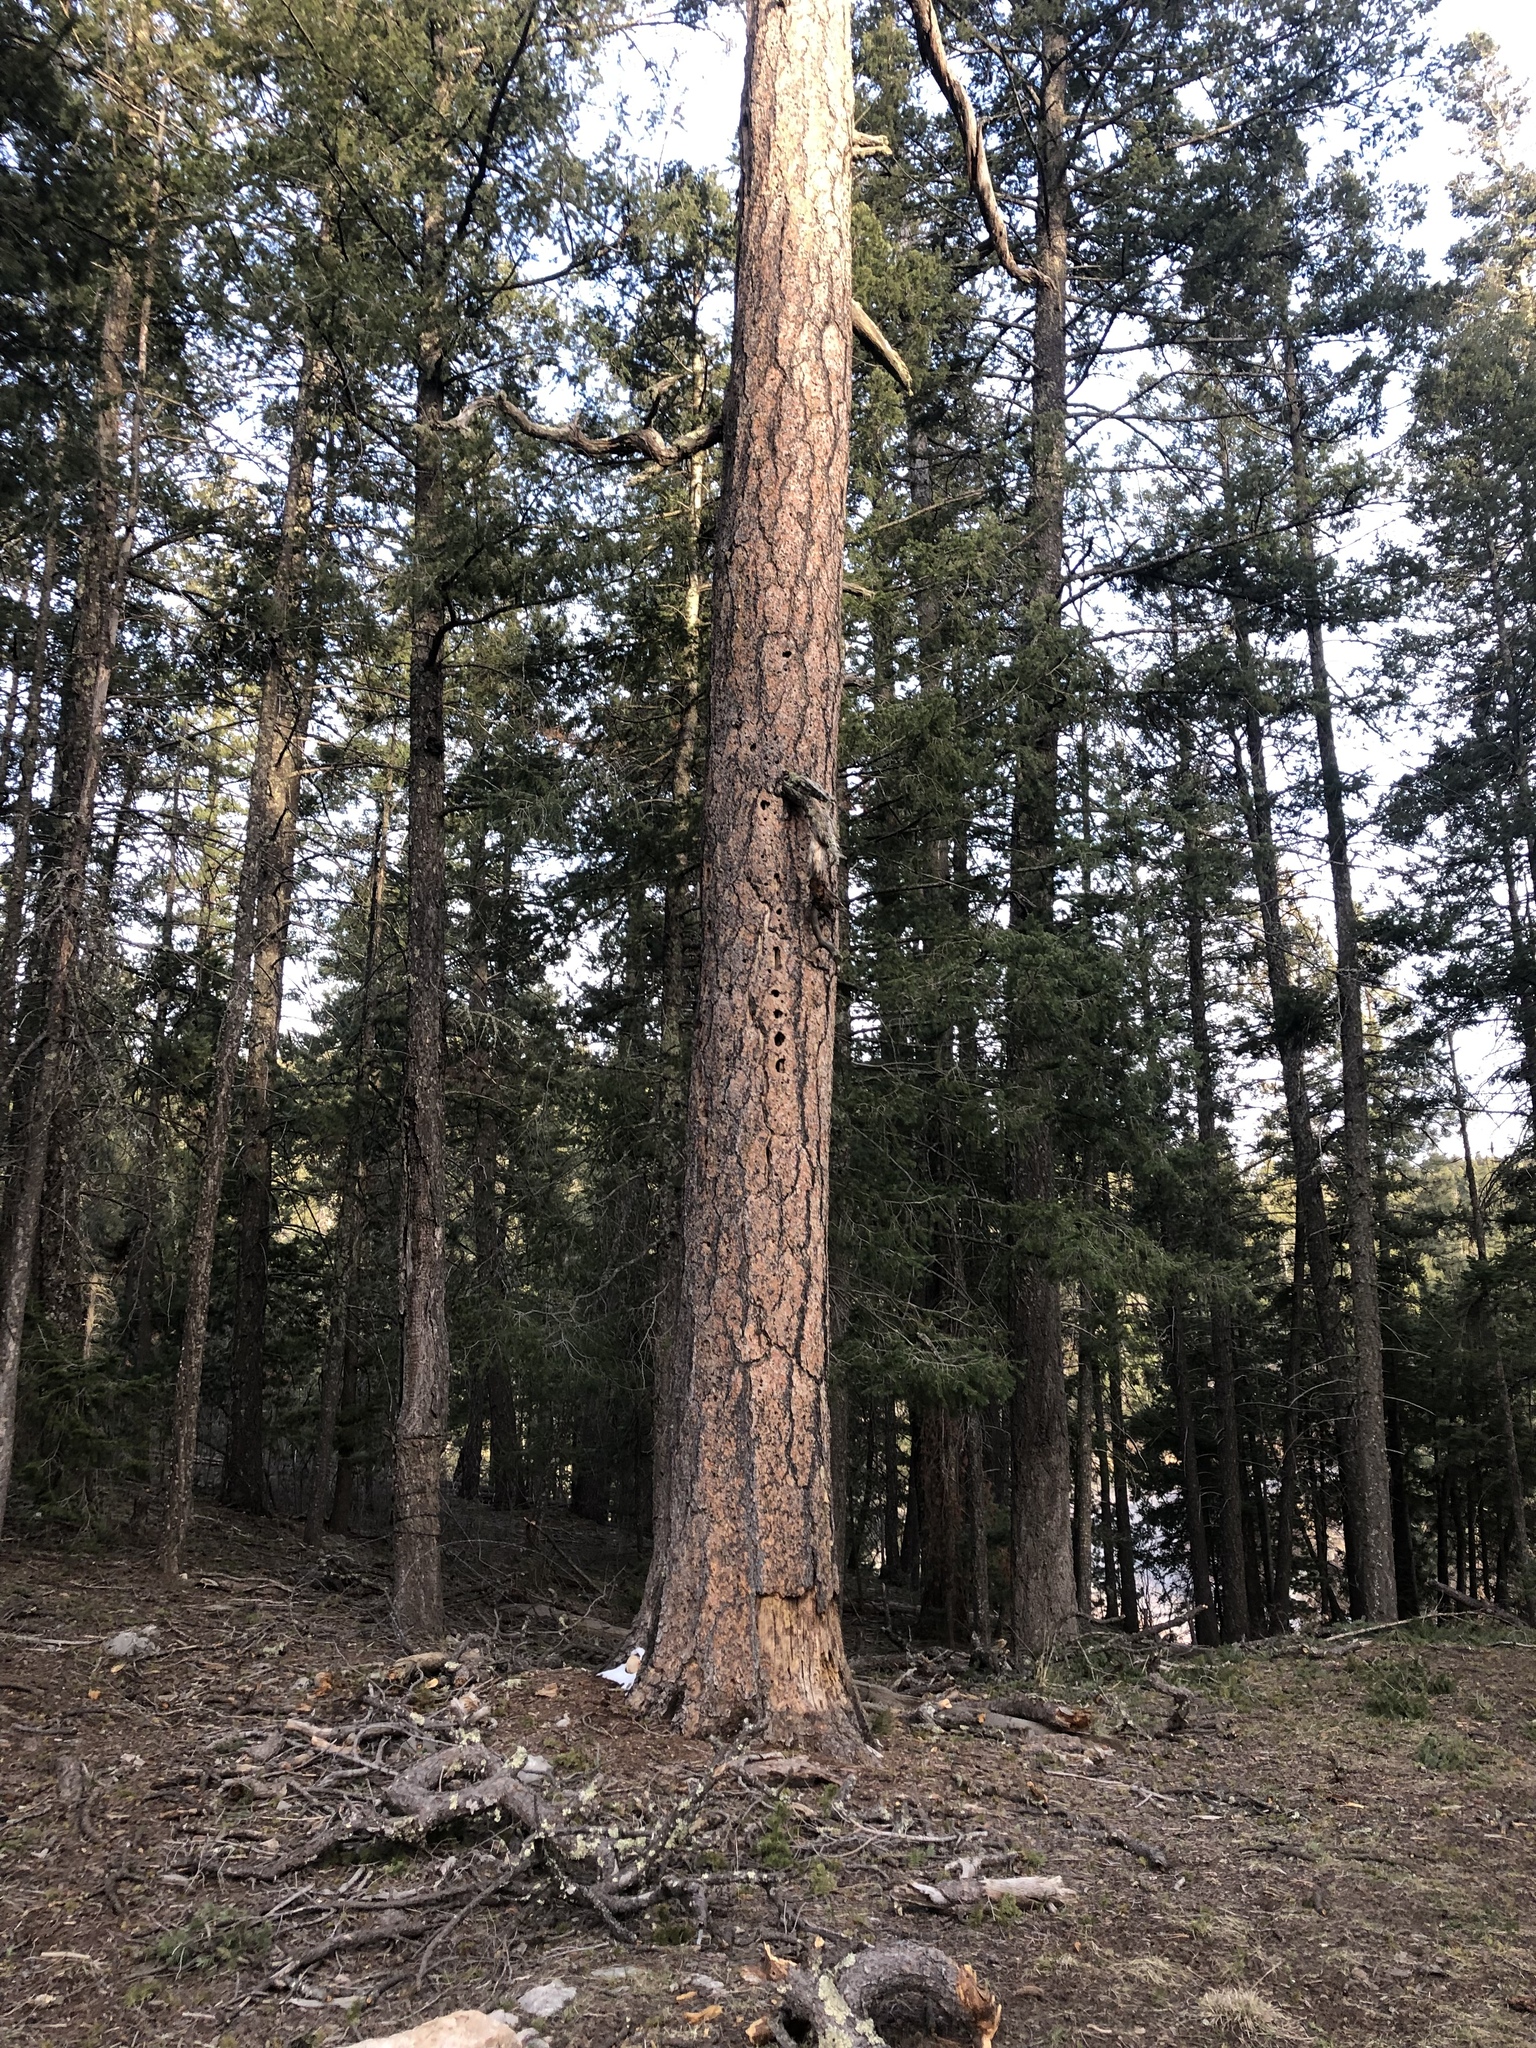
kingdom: Plantae
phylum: Tracheophyta
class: Pinopsida
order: Pinales
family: Pinaceae
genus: Pinus
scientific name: Pinus ponderosa
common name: Western yellow-pine
